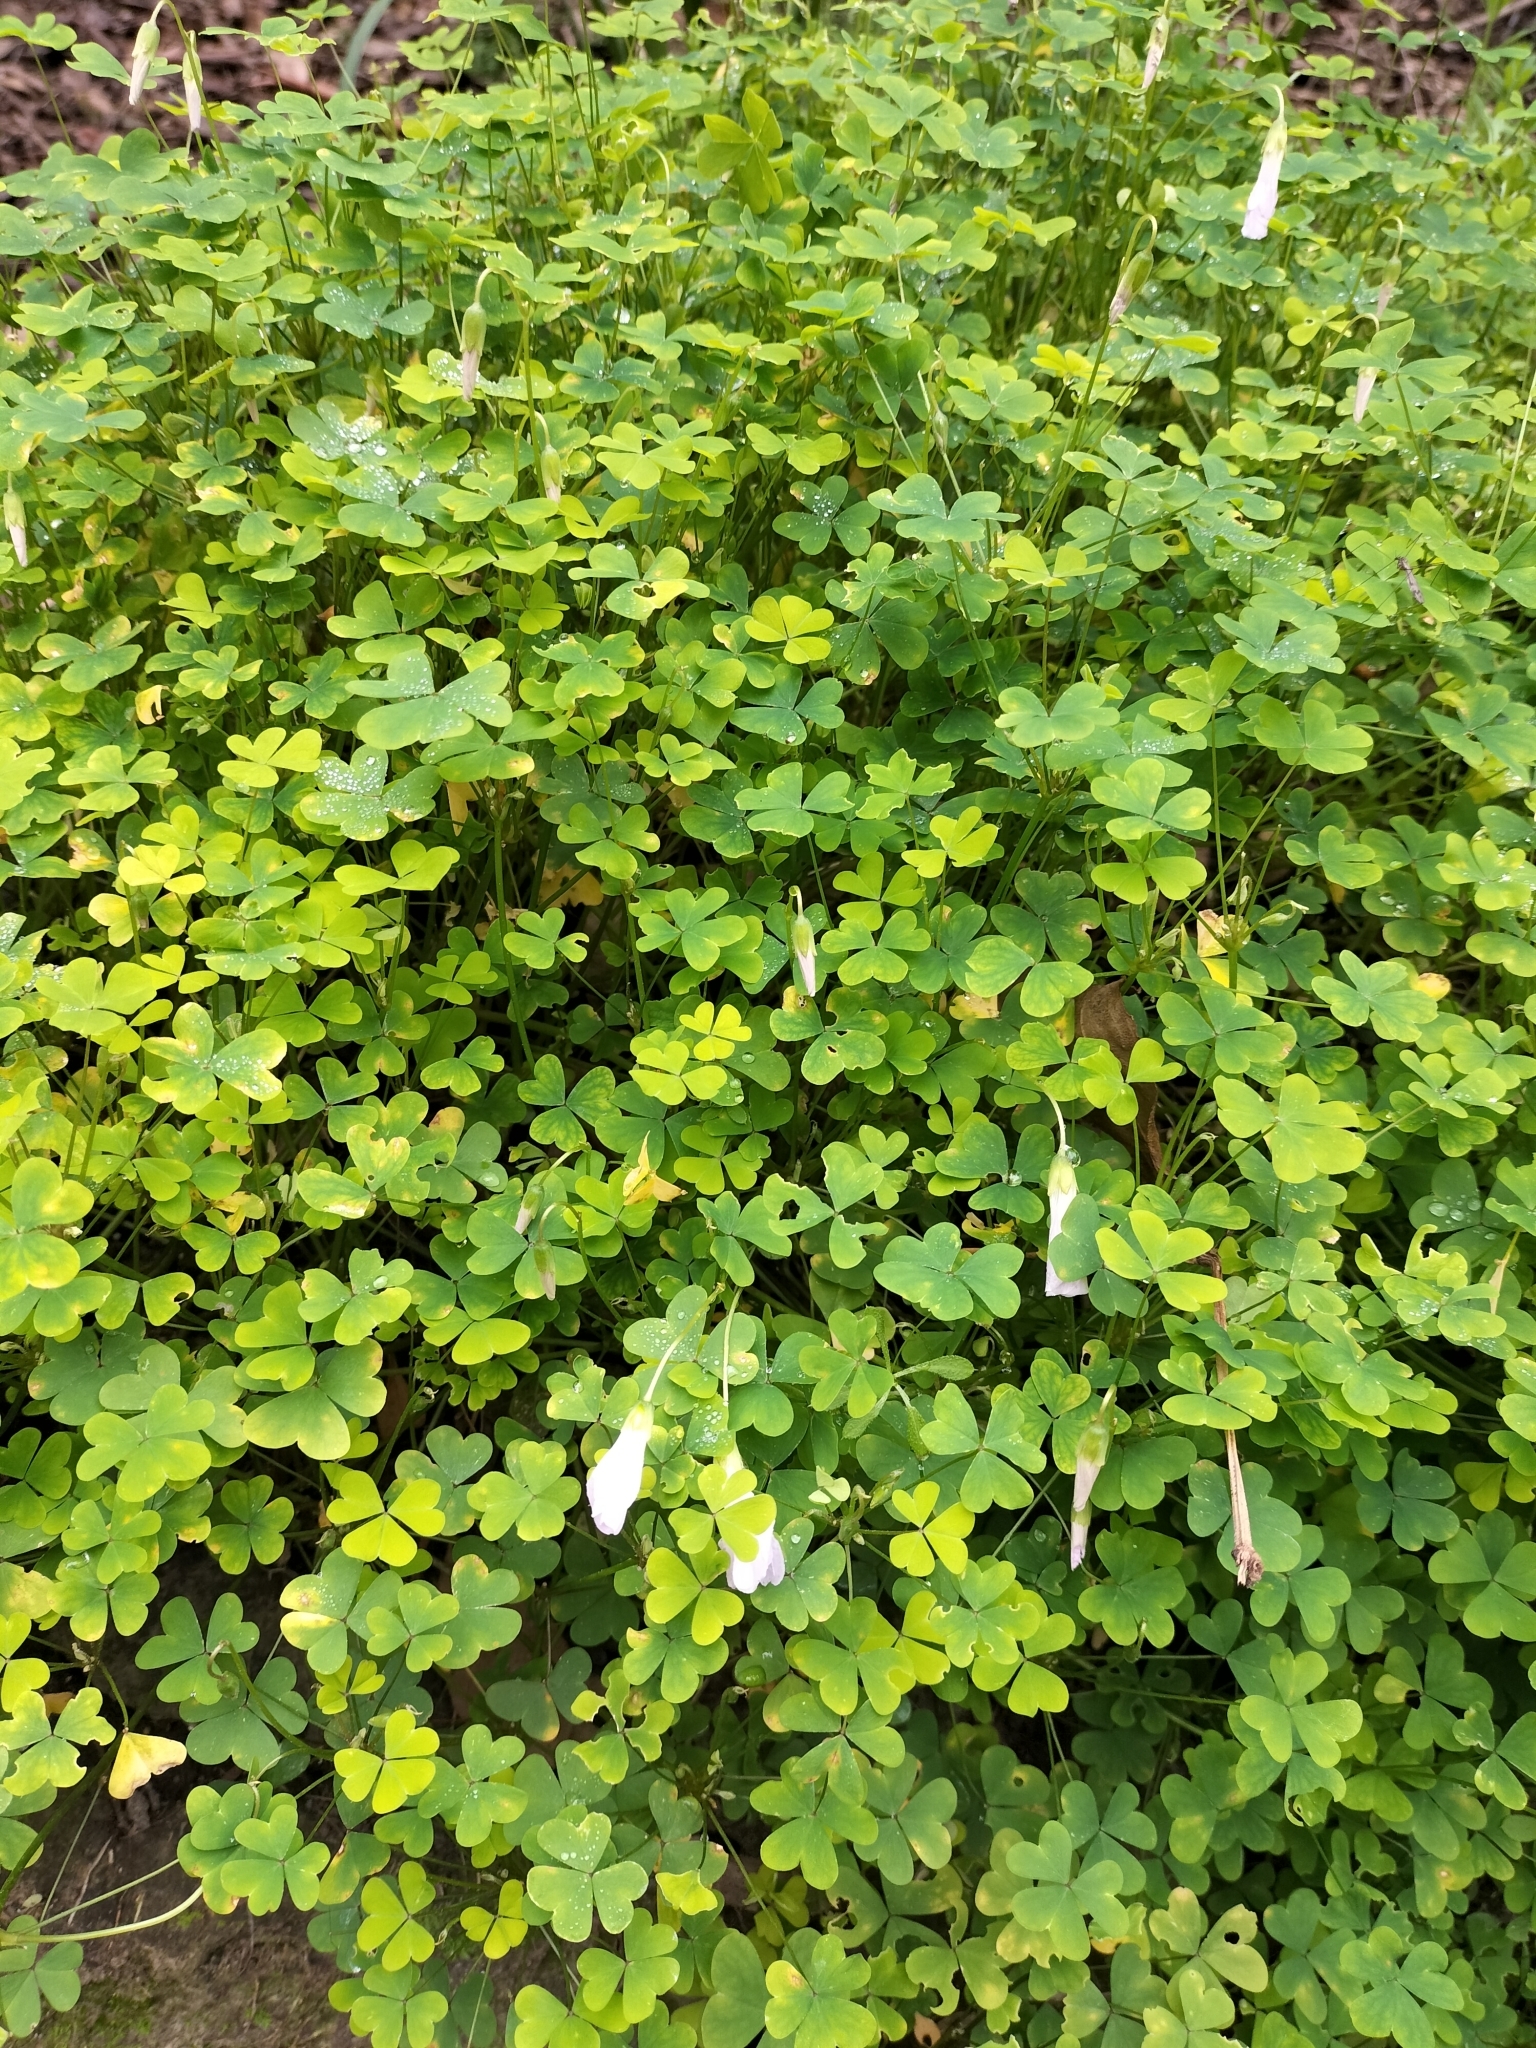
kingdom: Plantae
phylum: Tracheophyta
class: Magnoliopsida
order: Oxalidales
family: Oxalidaceae
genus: Oxalis
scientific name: Oxalis incarnata
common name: Pale pink-sorrel
